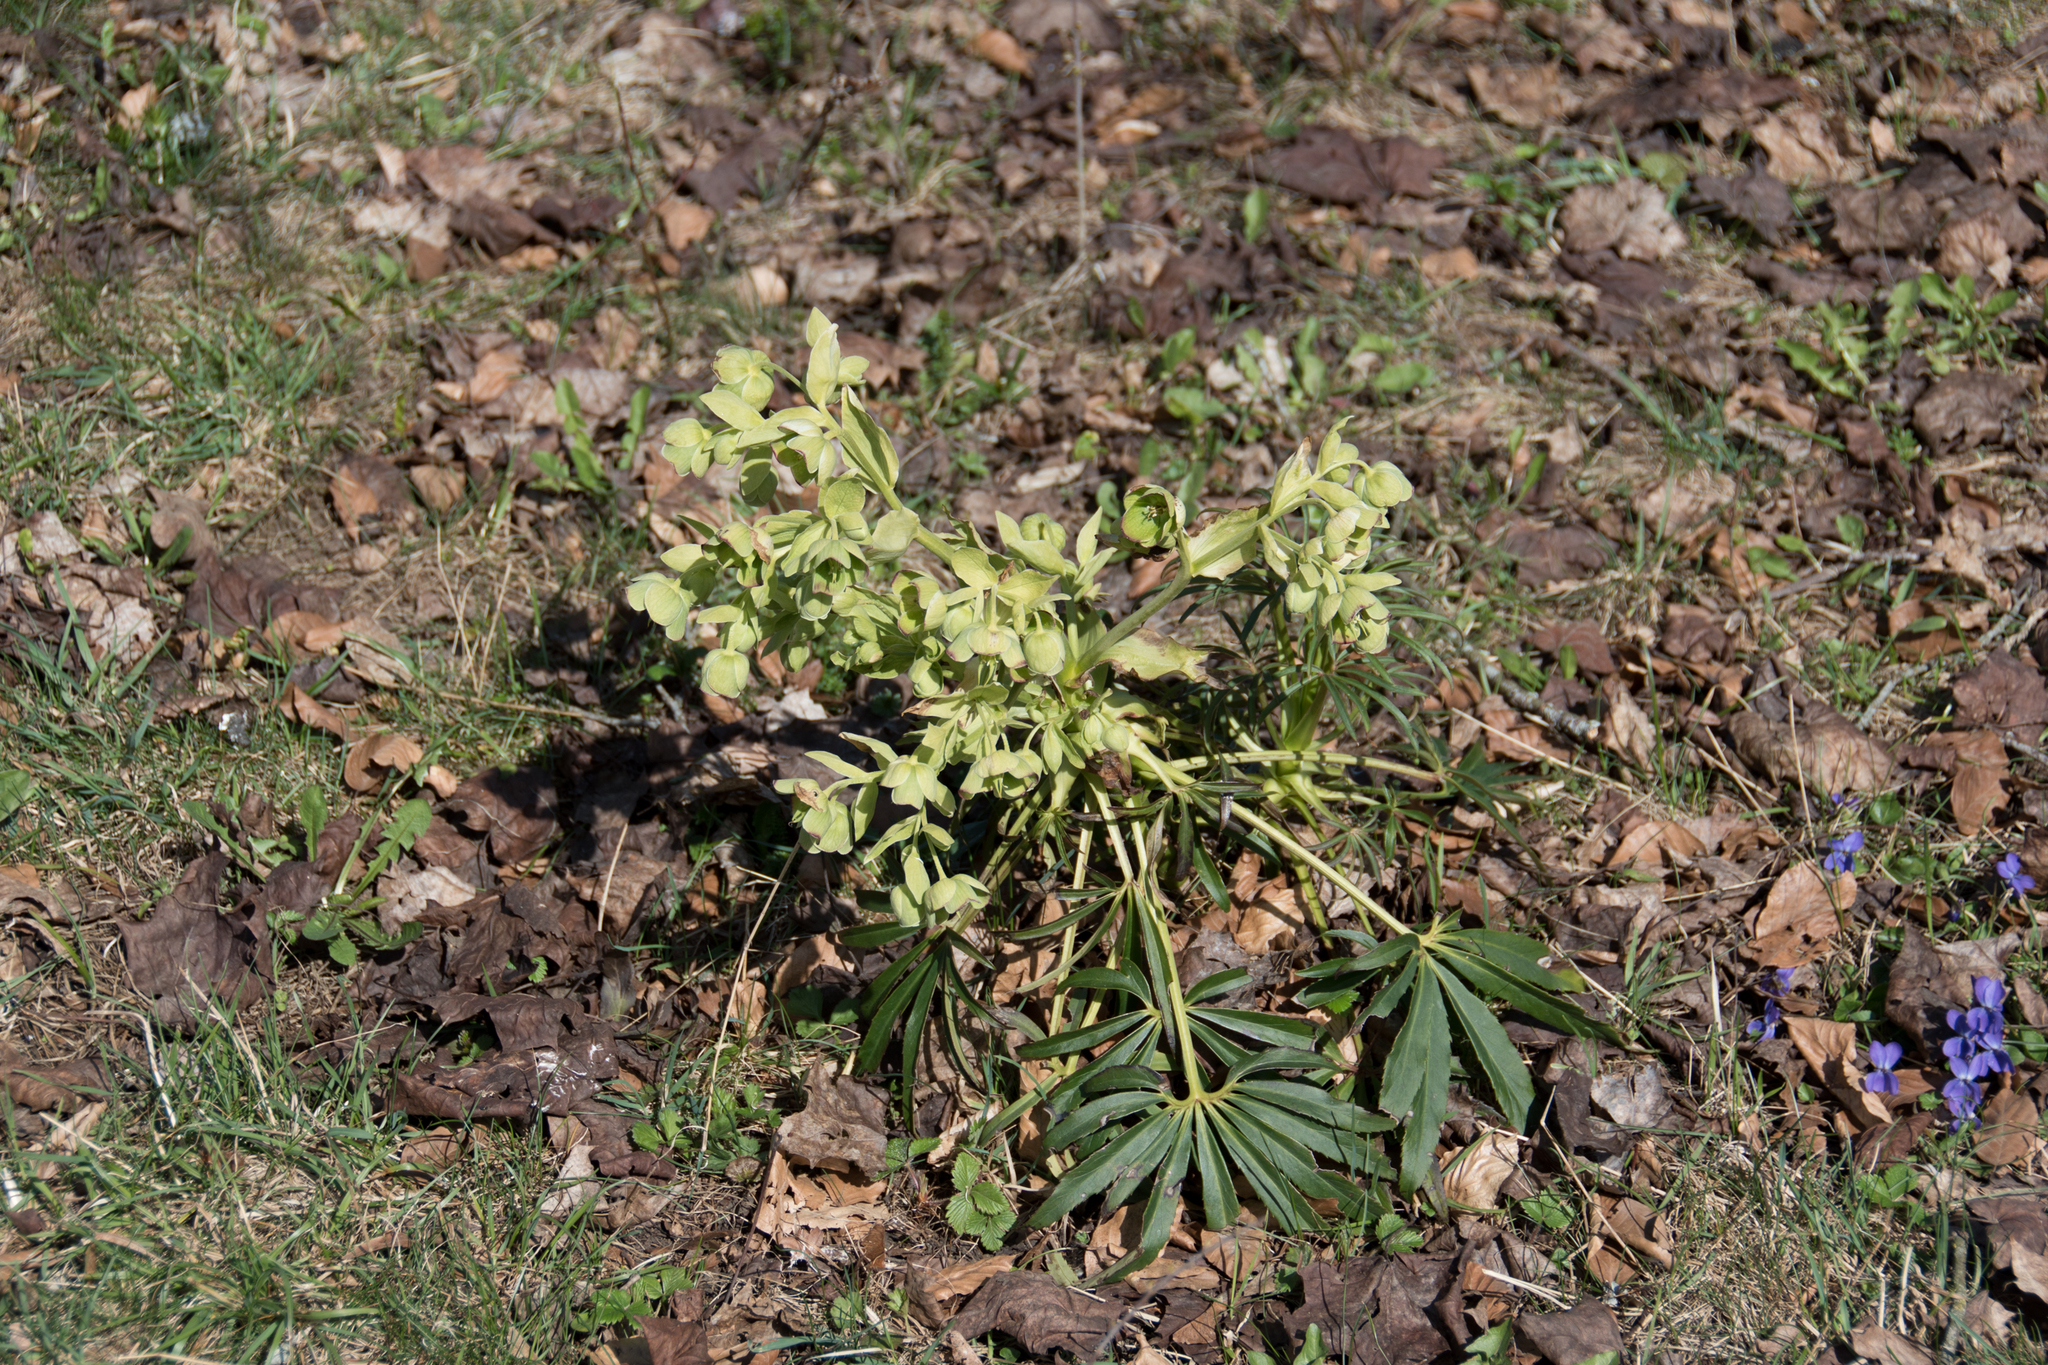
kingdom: Plantae
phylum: Tracheophyta
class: Magnoliopsida
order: Ranunculales
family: Ranunculaceae
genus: Helleborus
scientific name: Helleborus foetidus
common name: Stinking hellebore
